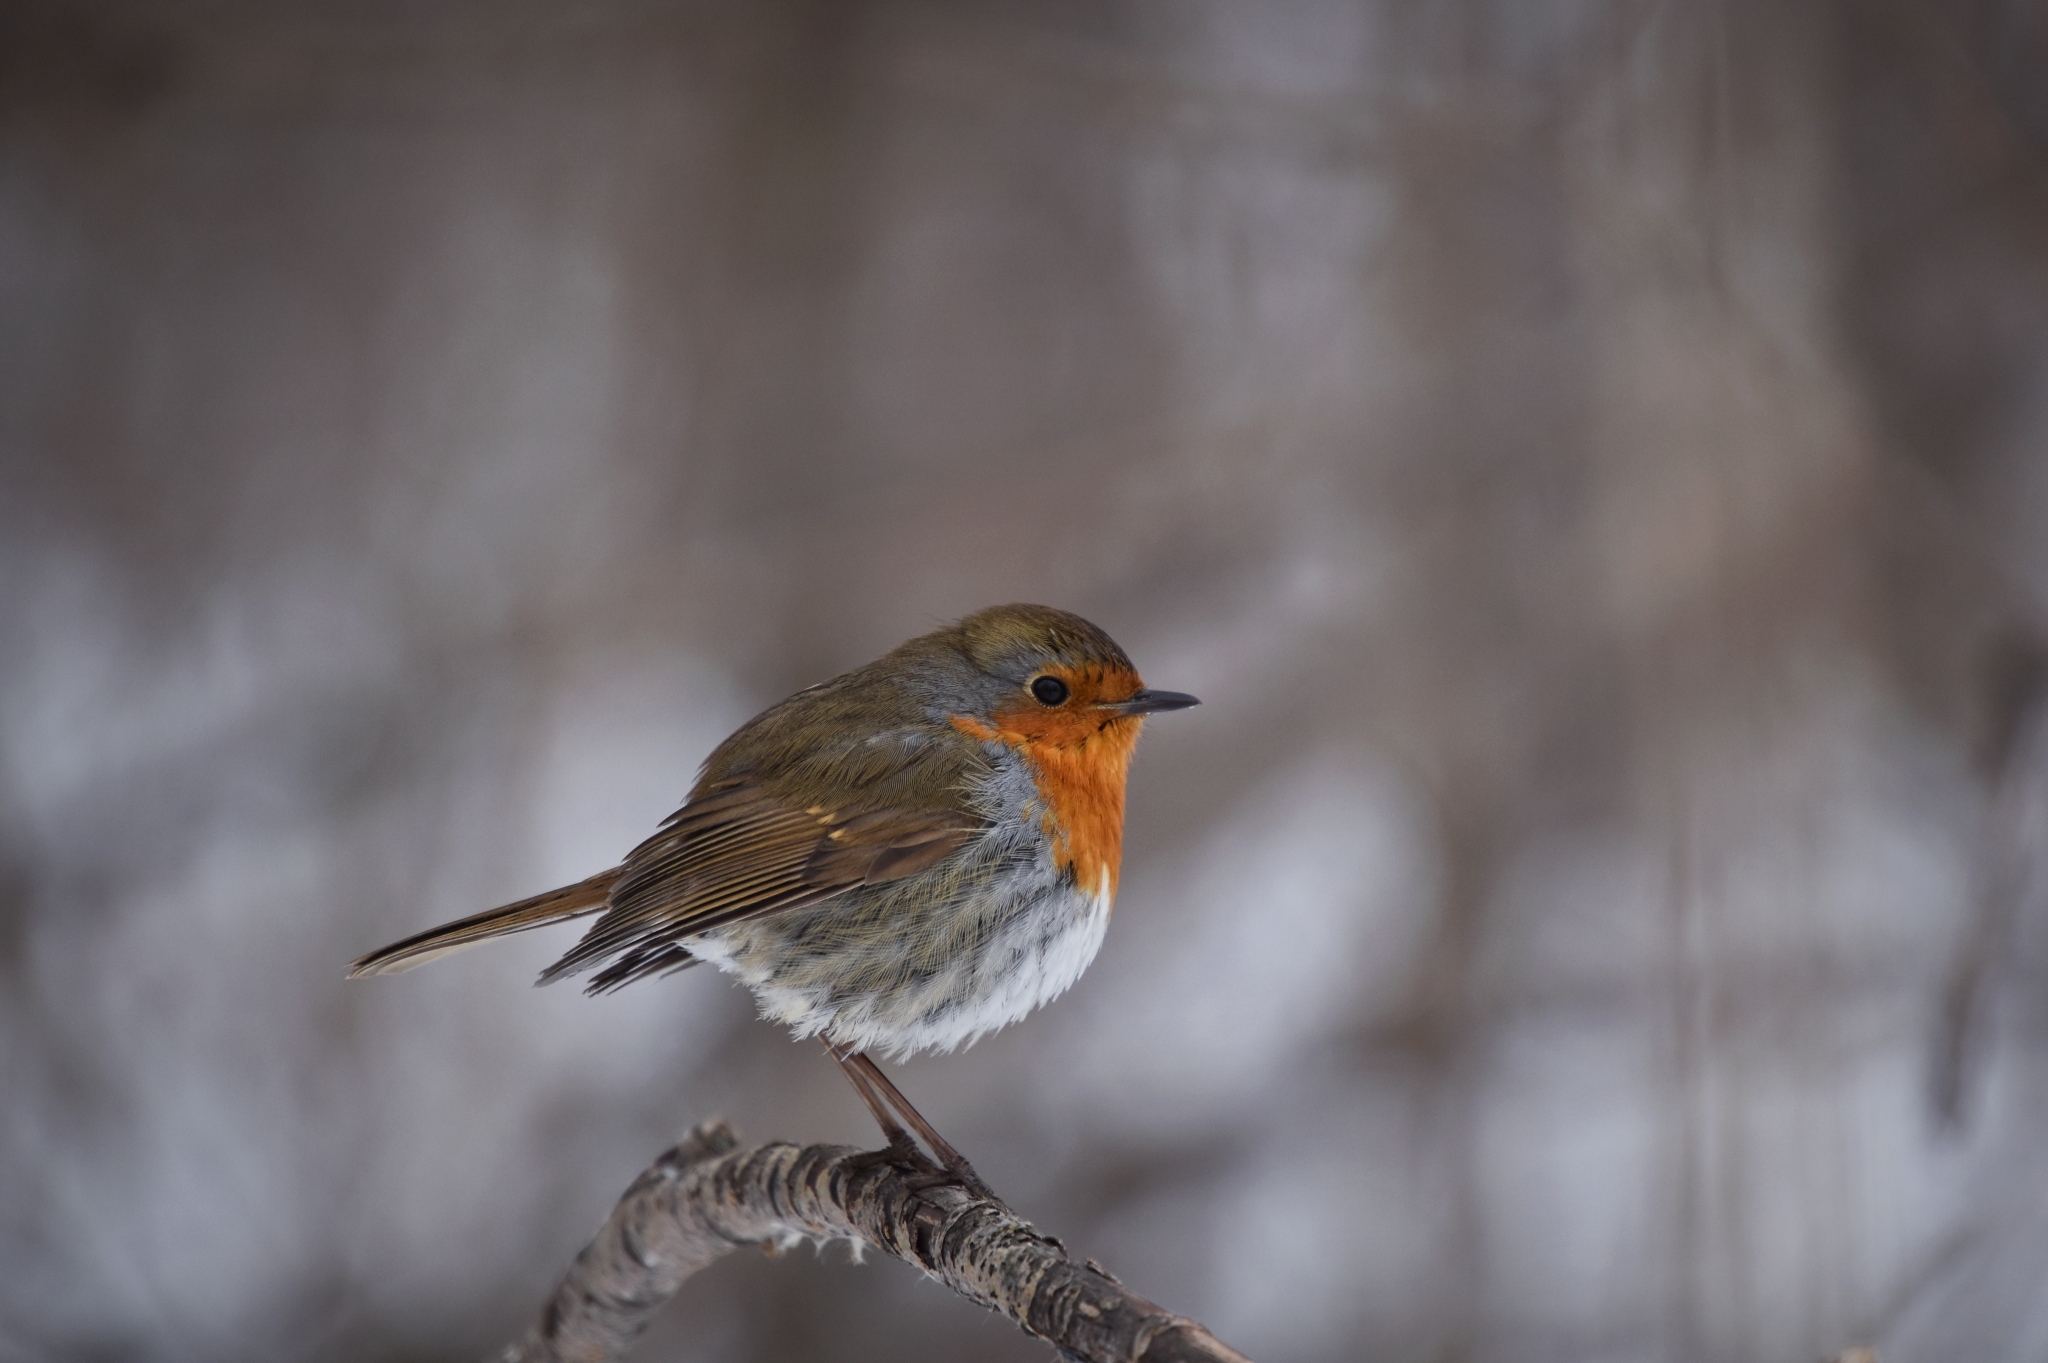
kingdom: Animalia
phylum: Chordata
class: Aves
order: Passeriformes
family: Muscicapidae
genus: Erithacus
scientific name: Erithacus rubecula
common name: European robin
